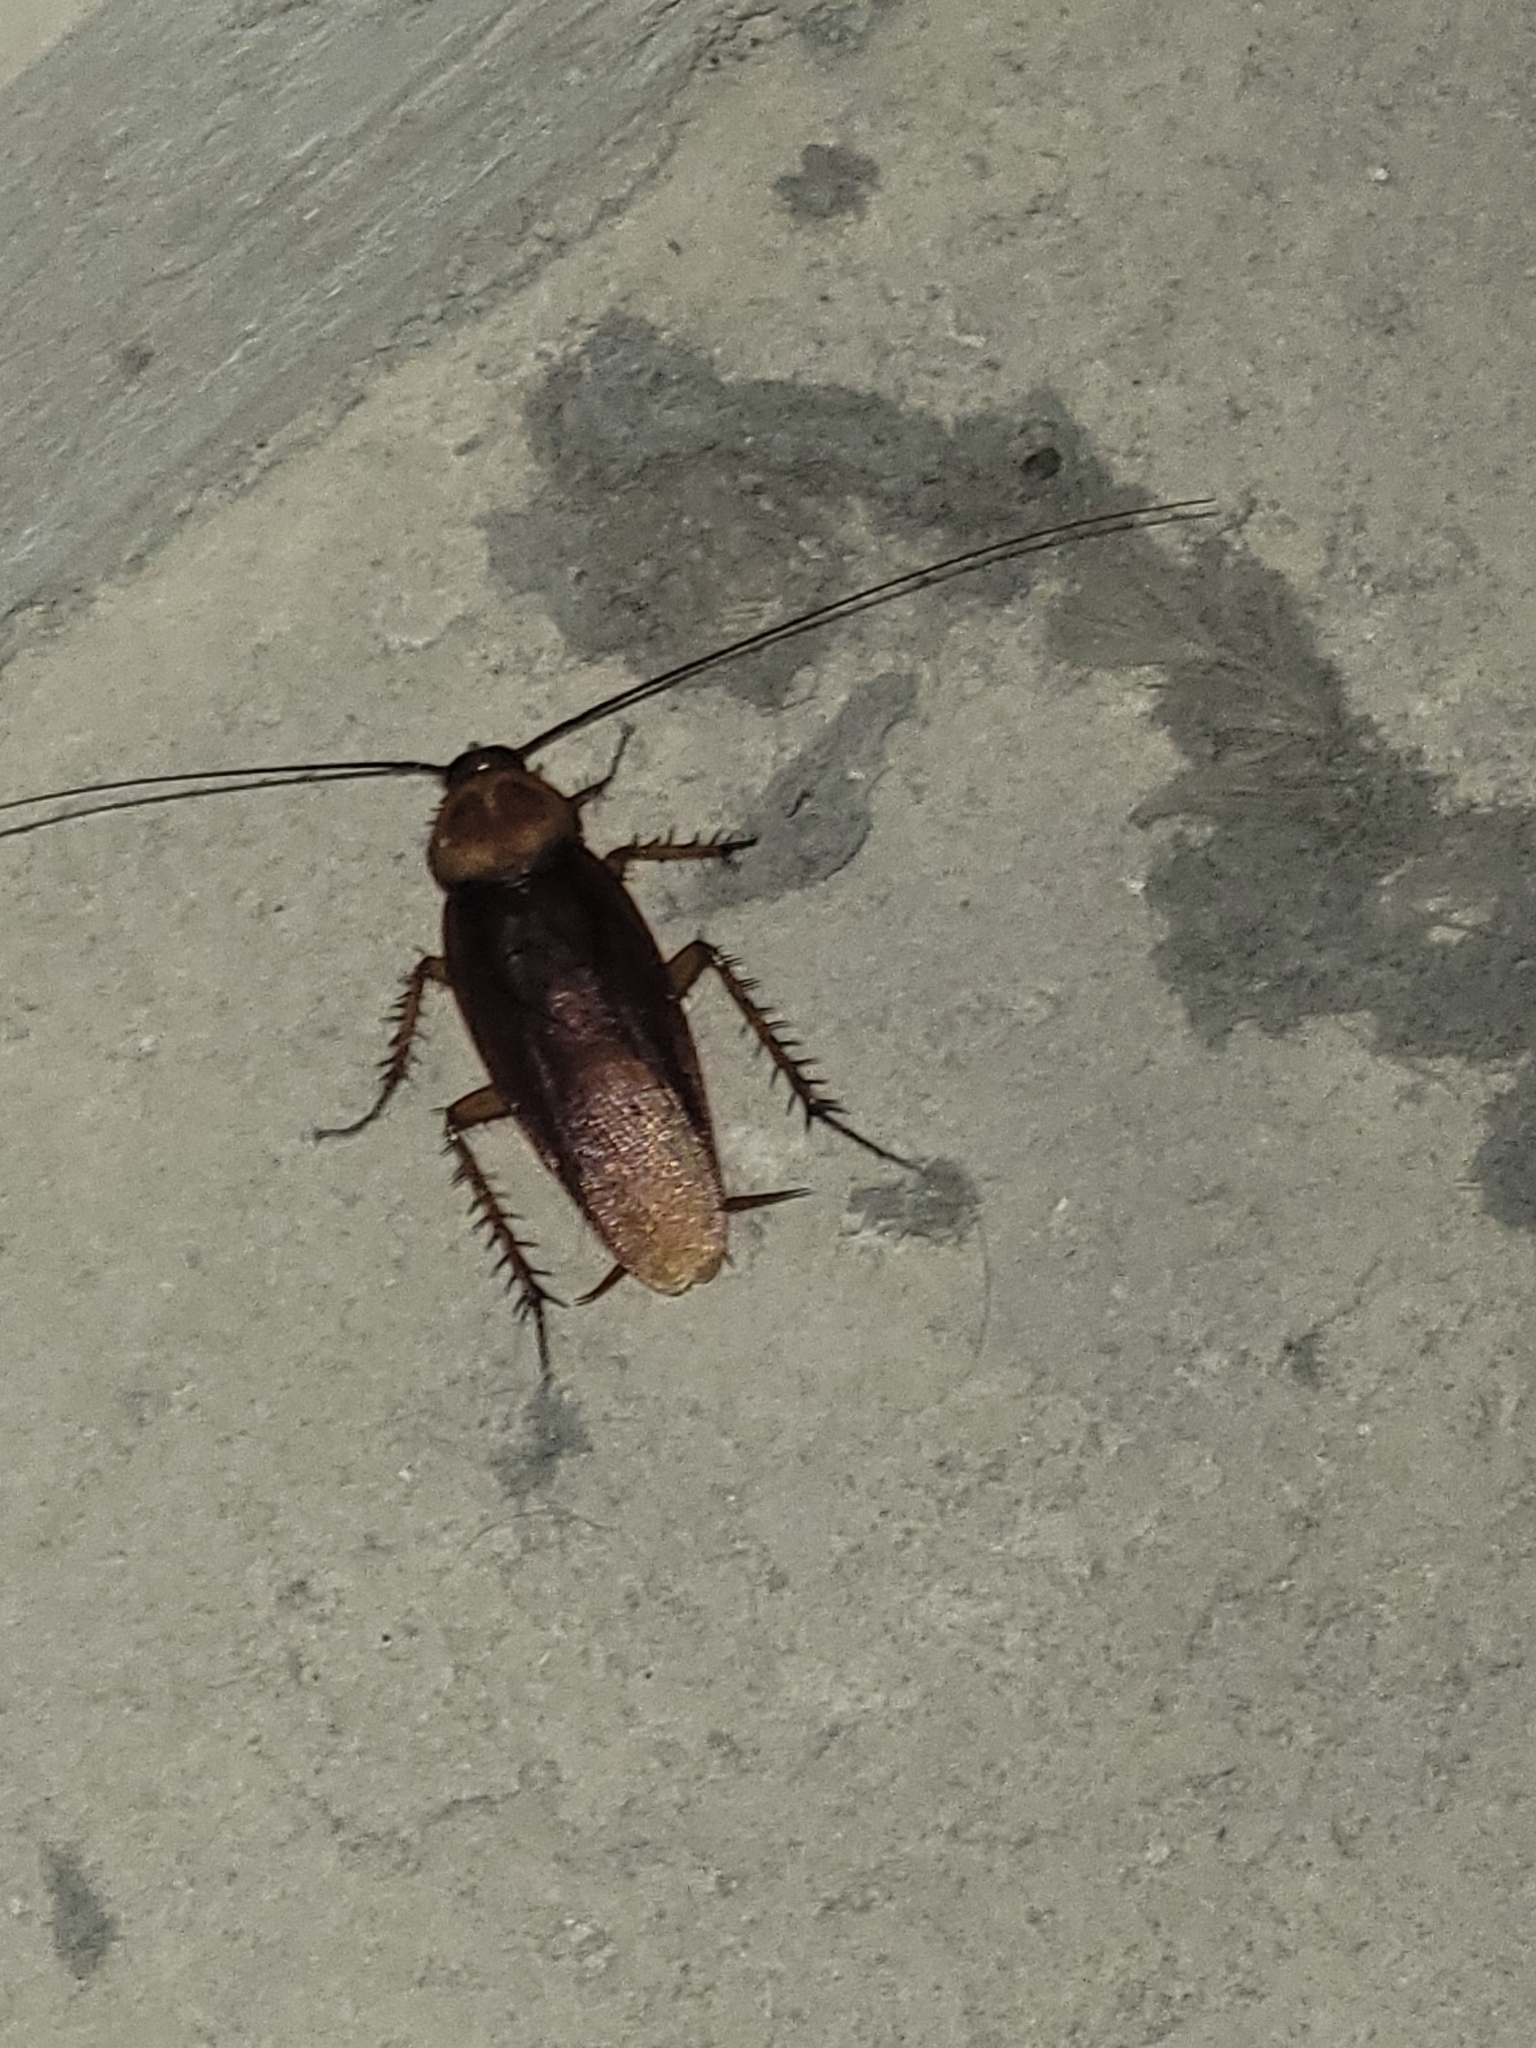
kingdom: Animalia
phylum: Arthropoda
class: Insecta
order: Blattodea
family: Blattidae
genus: Periplaneta
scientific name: Periplaneta americana
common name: American cockroach
